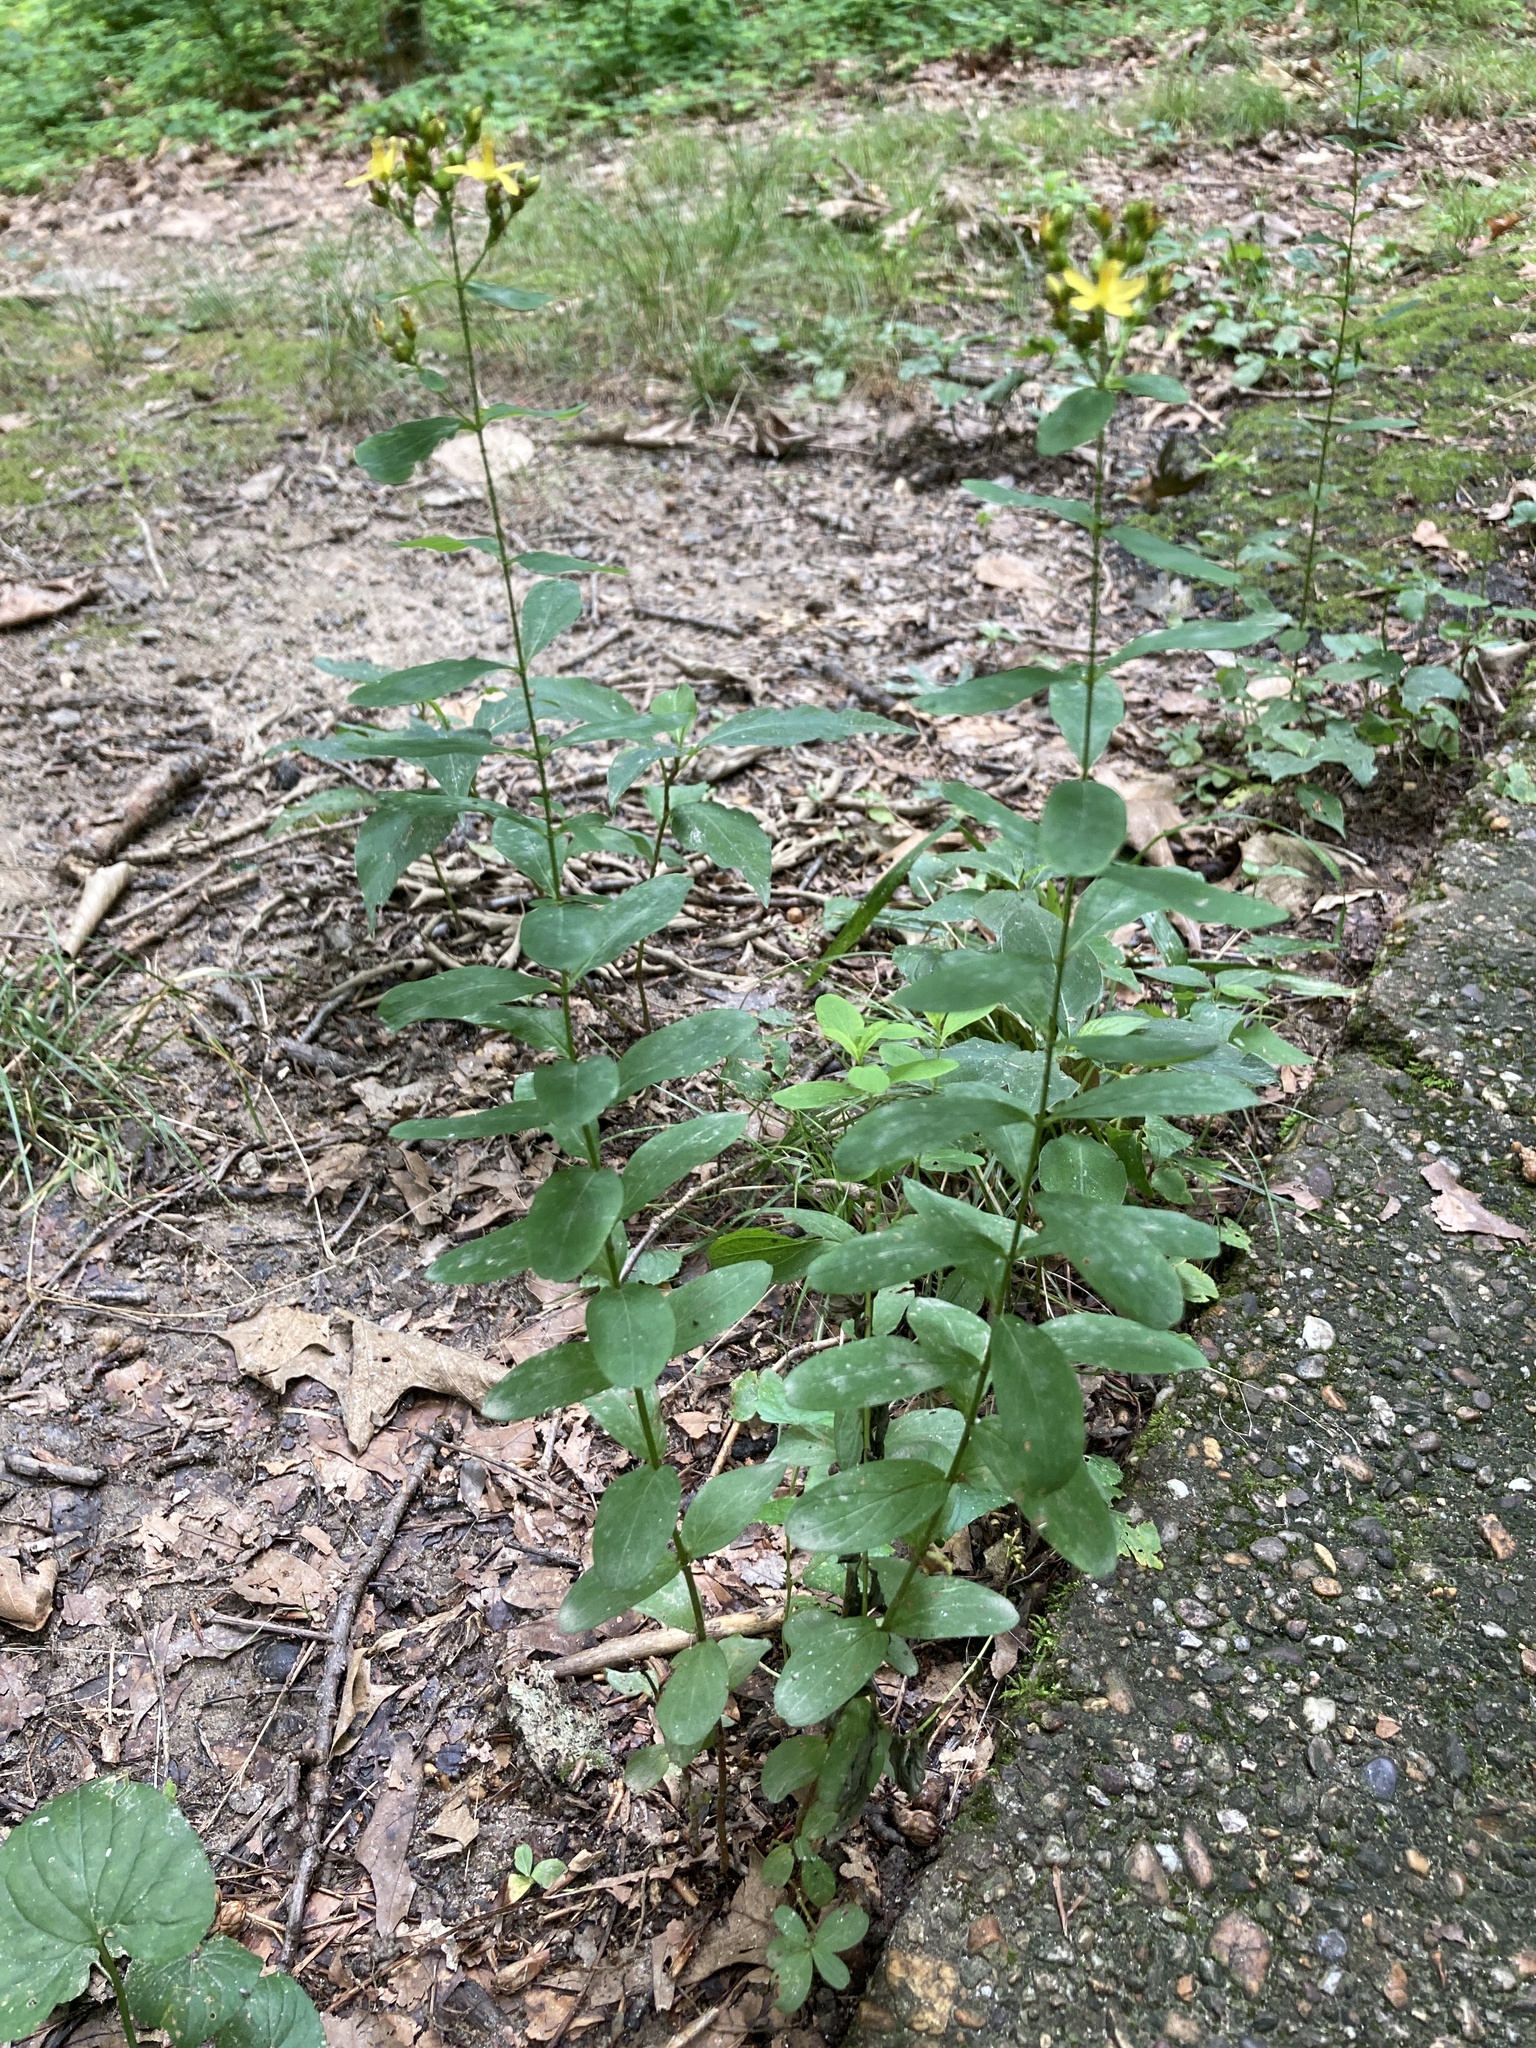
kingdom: Plantae
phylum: Tracheophyta
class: Magnoliopsida
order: Malpighiales
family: Hypericaceae
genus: Hypericum
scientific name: Hypericum punctatum
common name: Spotted st. john's-wort
